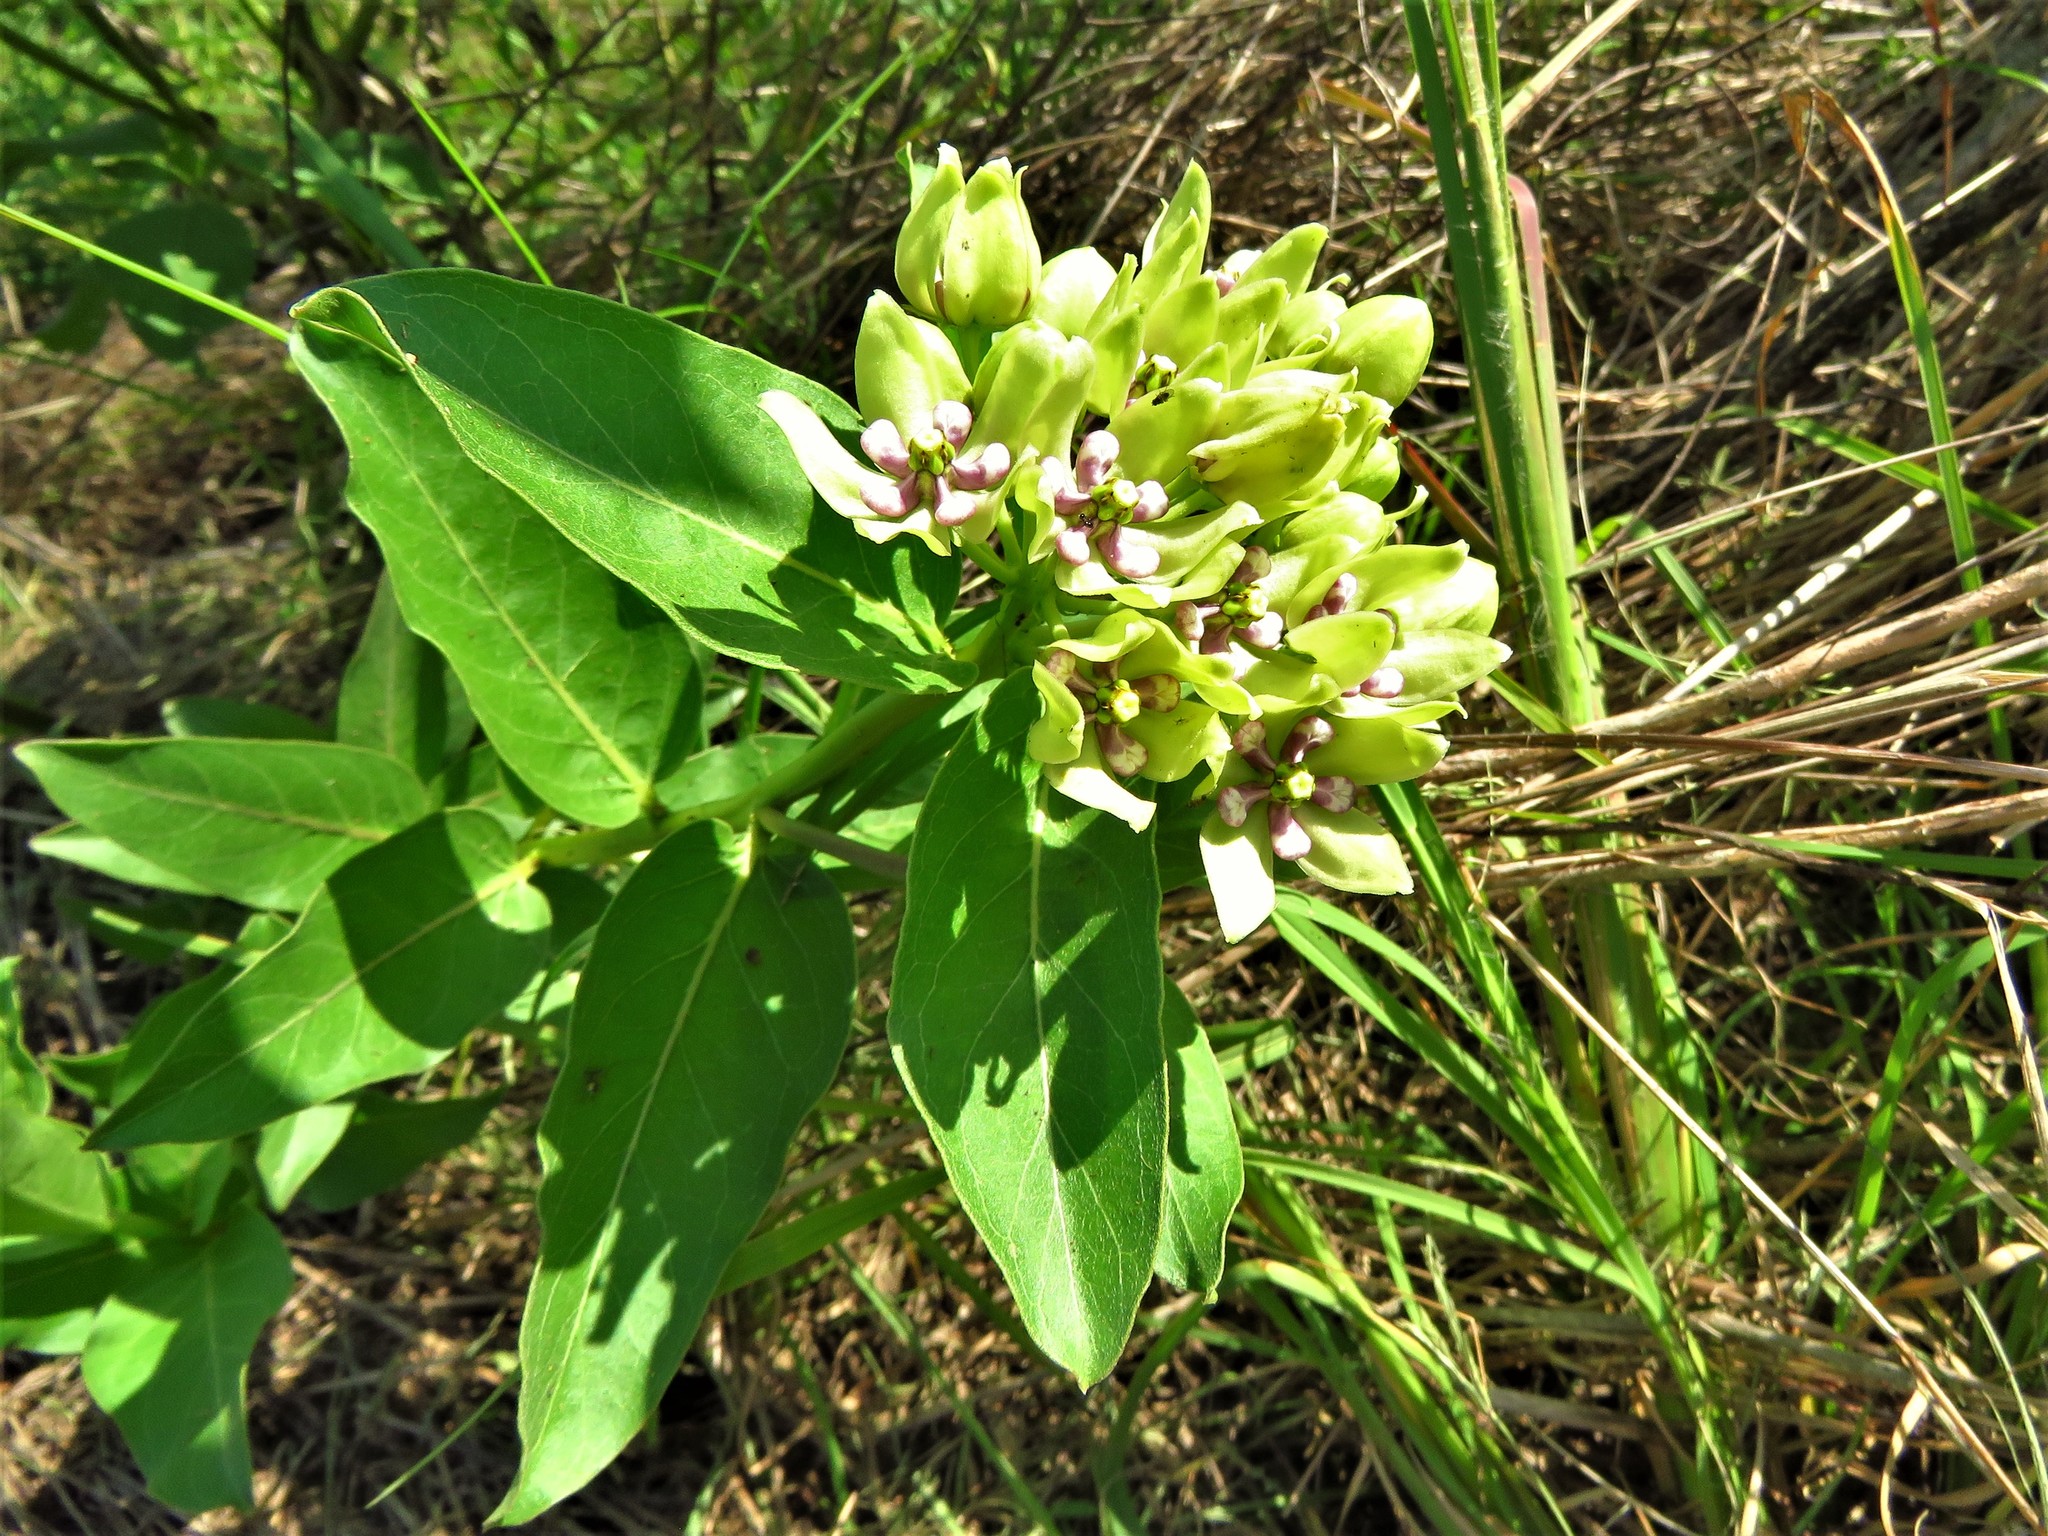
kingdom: Plantae
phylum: Tracheophyta
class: Magnoliopsida
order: Gentianales
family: Apocynaceae
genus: Asclepias
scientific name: Asclepias viridis
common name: Antelope-horns
